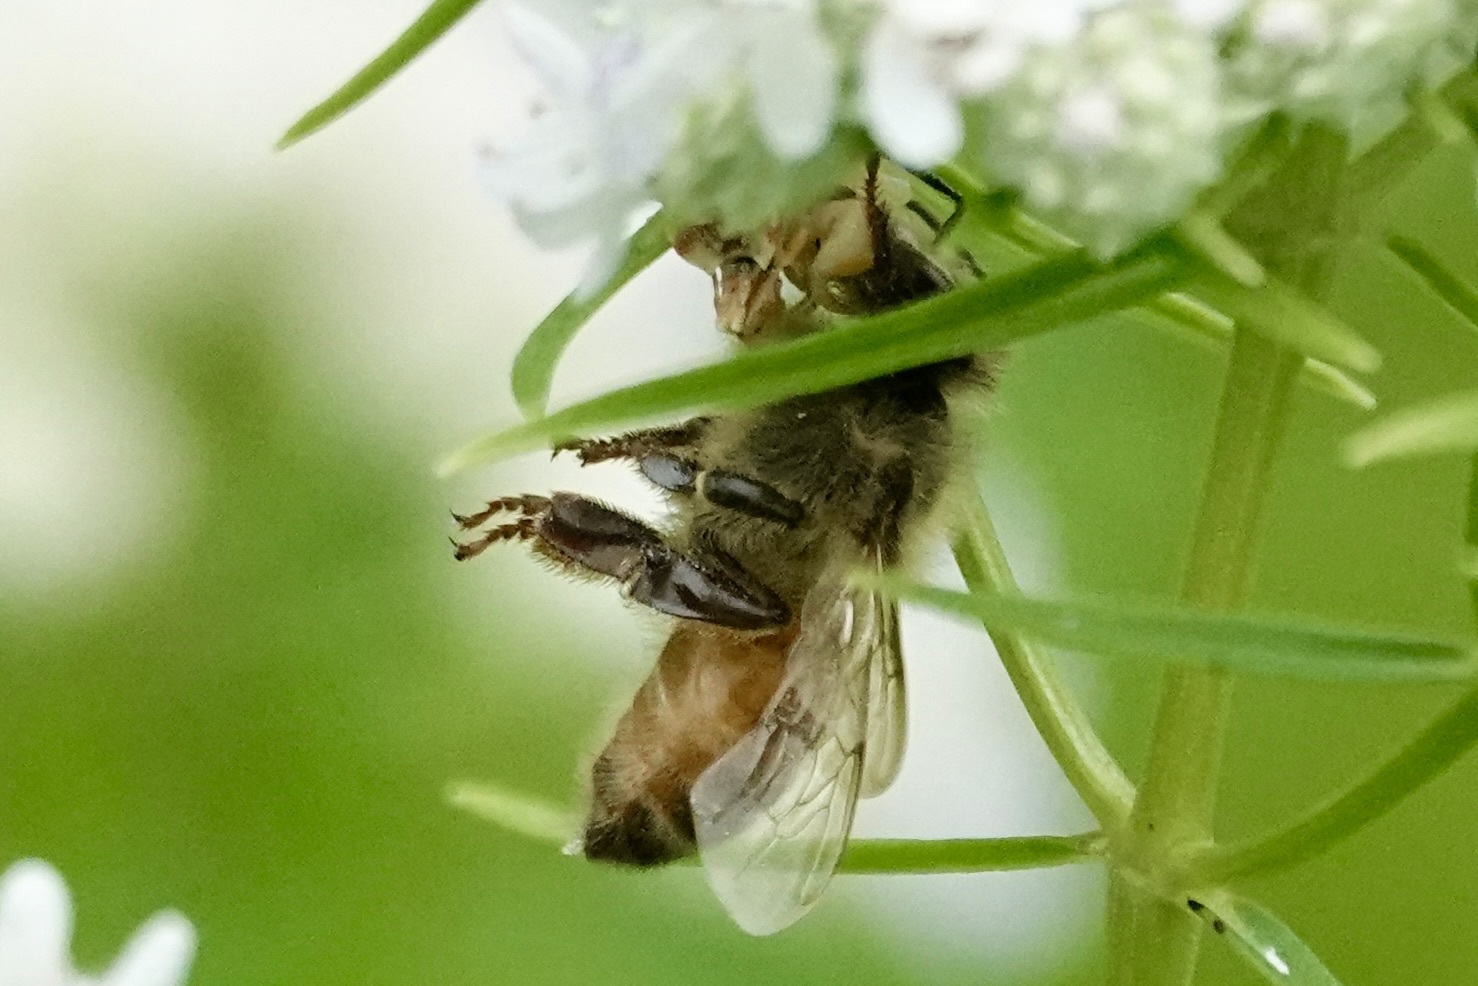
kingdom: Animalia
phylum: Arthropoda
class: Insecta
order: Hymenoptera
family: Apidae
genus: Apis
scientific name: Apis mellifera
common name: Honey bee
